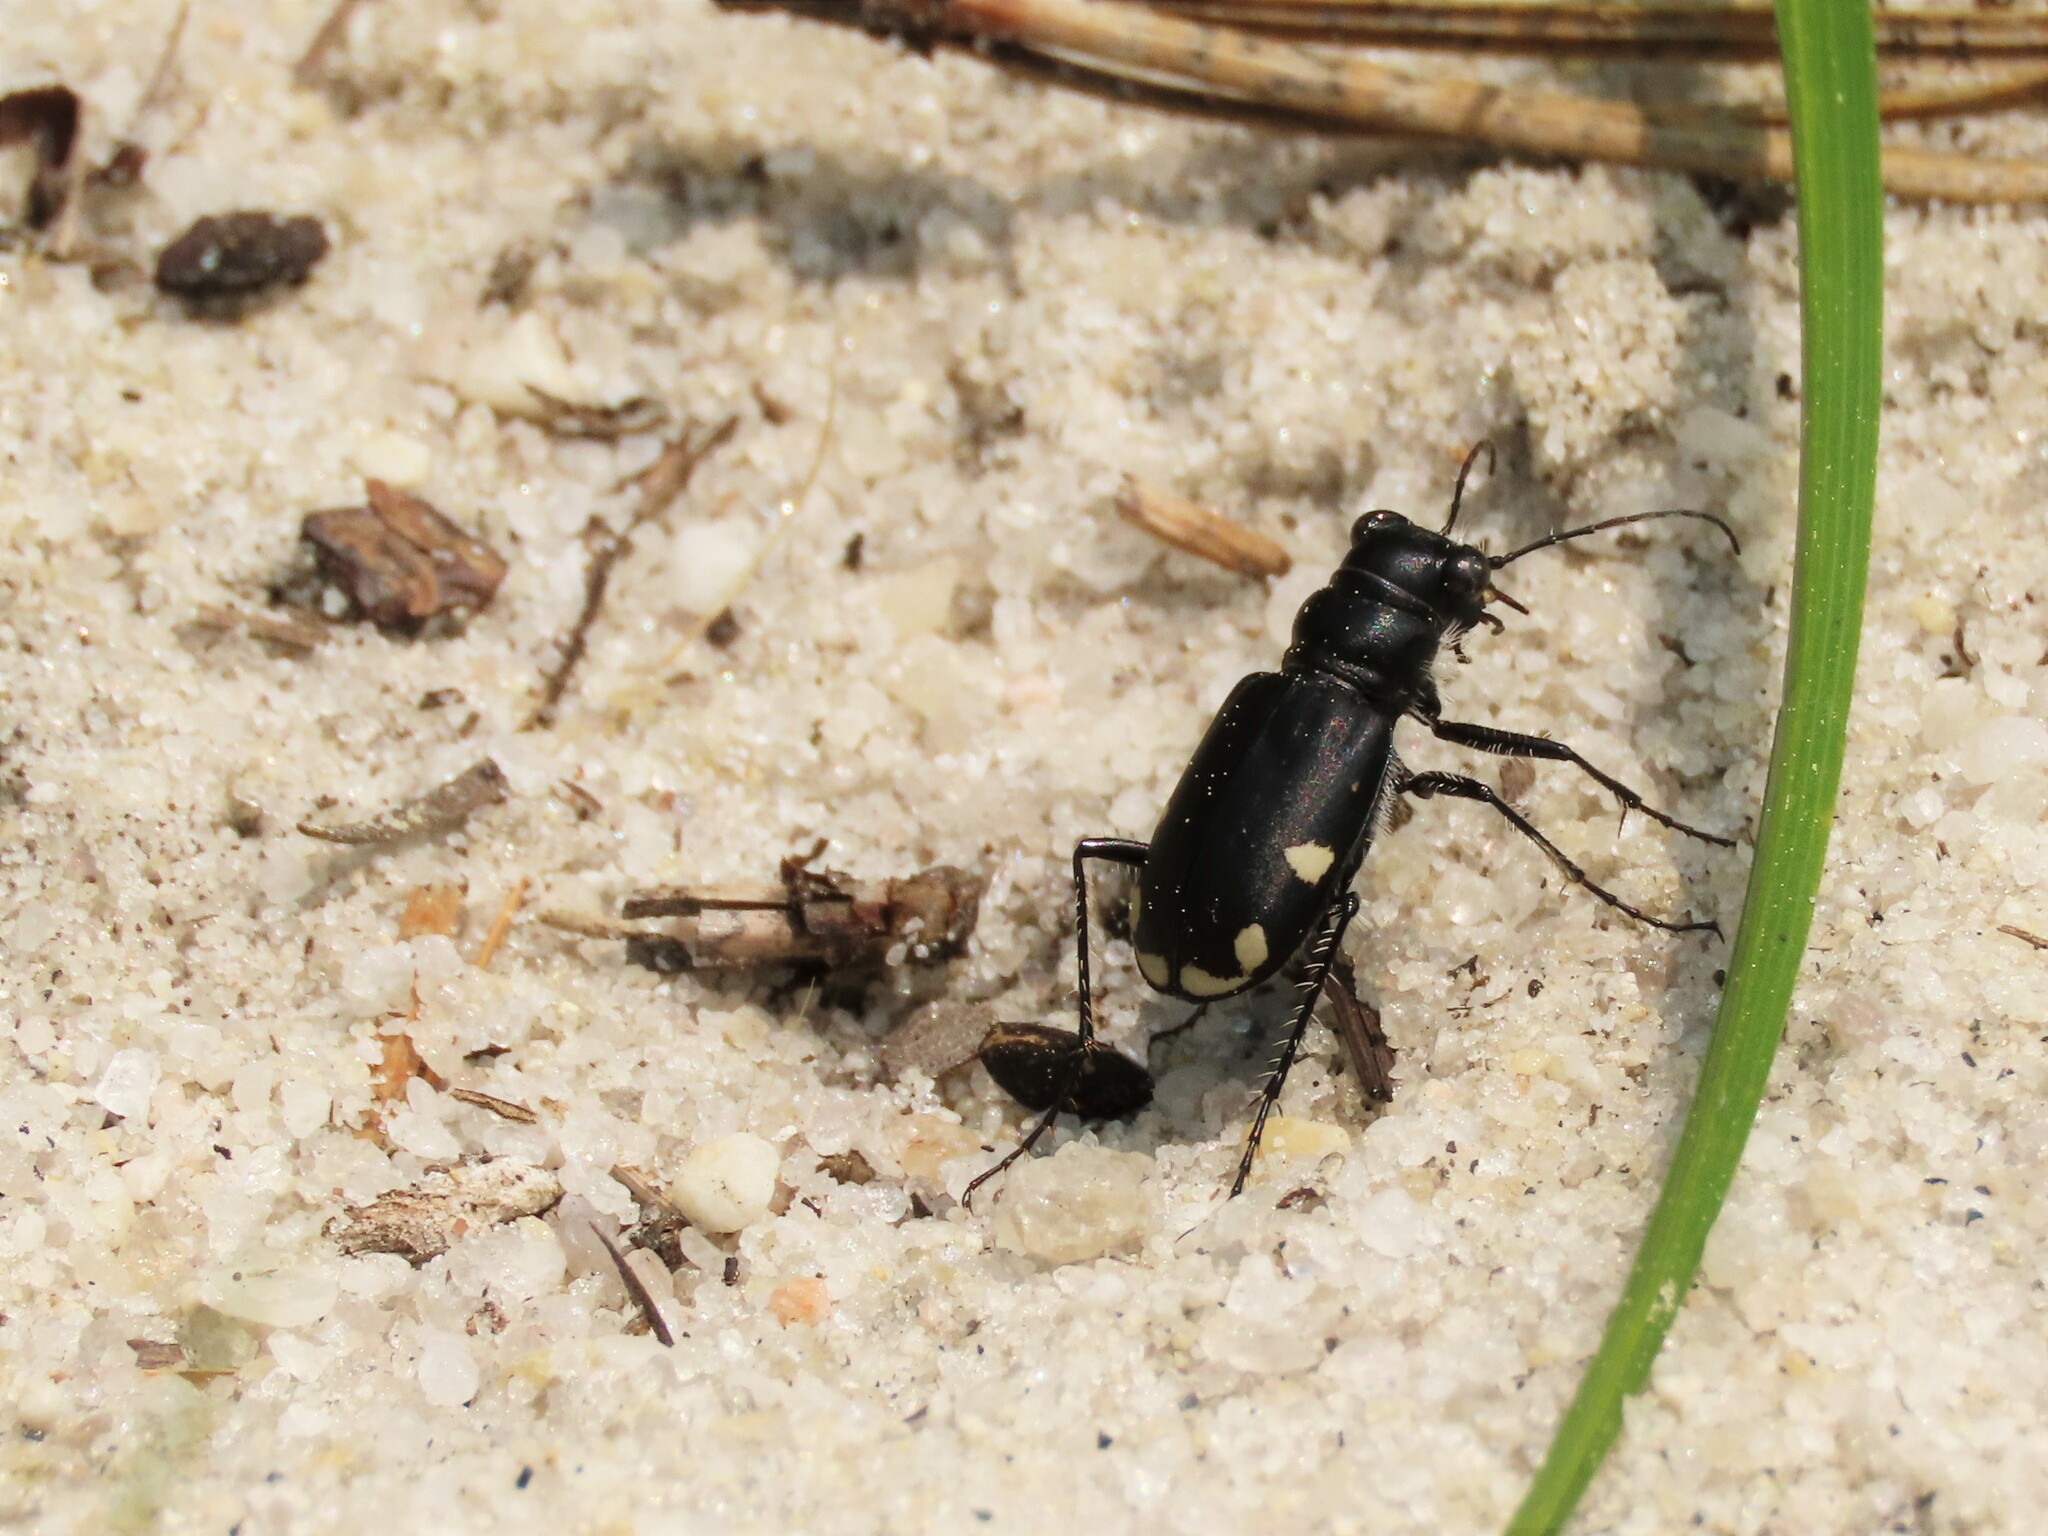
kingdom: Animalia
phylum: Arthropoda
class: Insecta
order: Coleoptera
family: Carabidae
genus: Cicindela
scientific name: Cicindela scutellaris
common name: Festive tiger beetle
